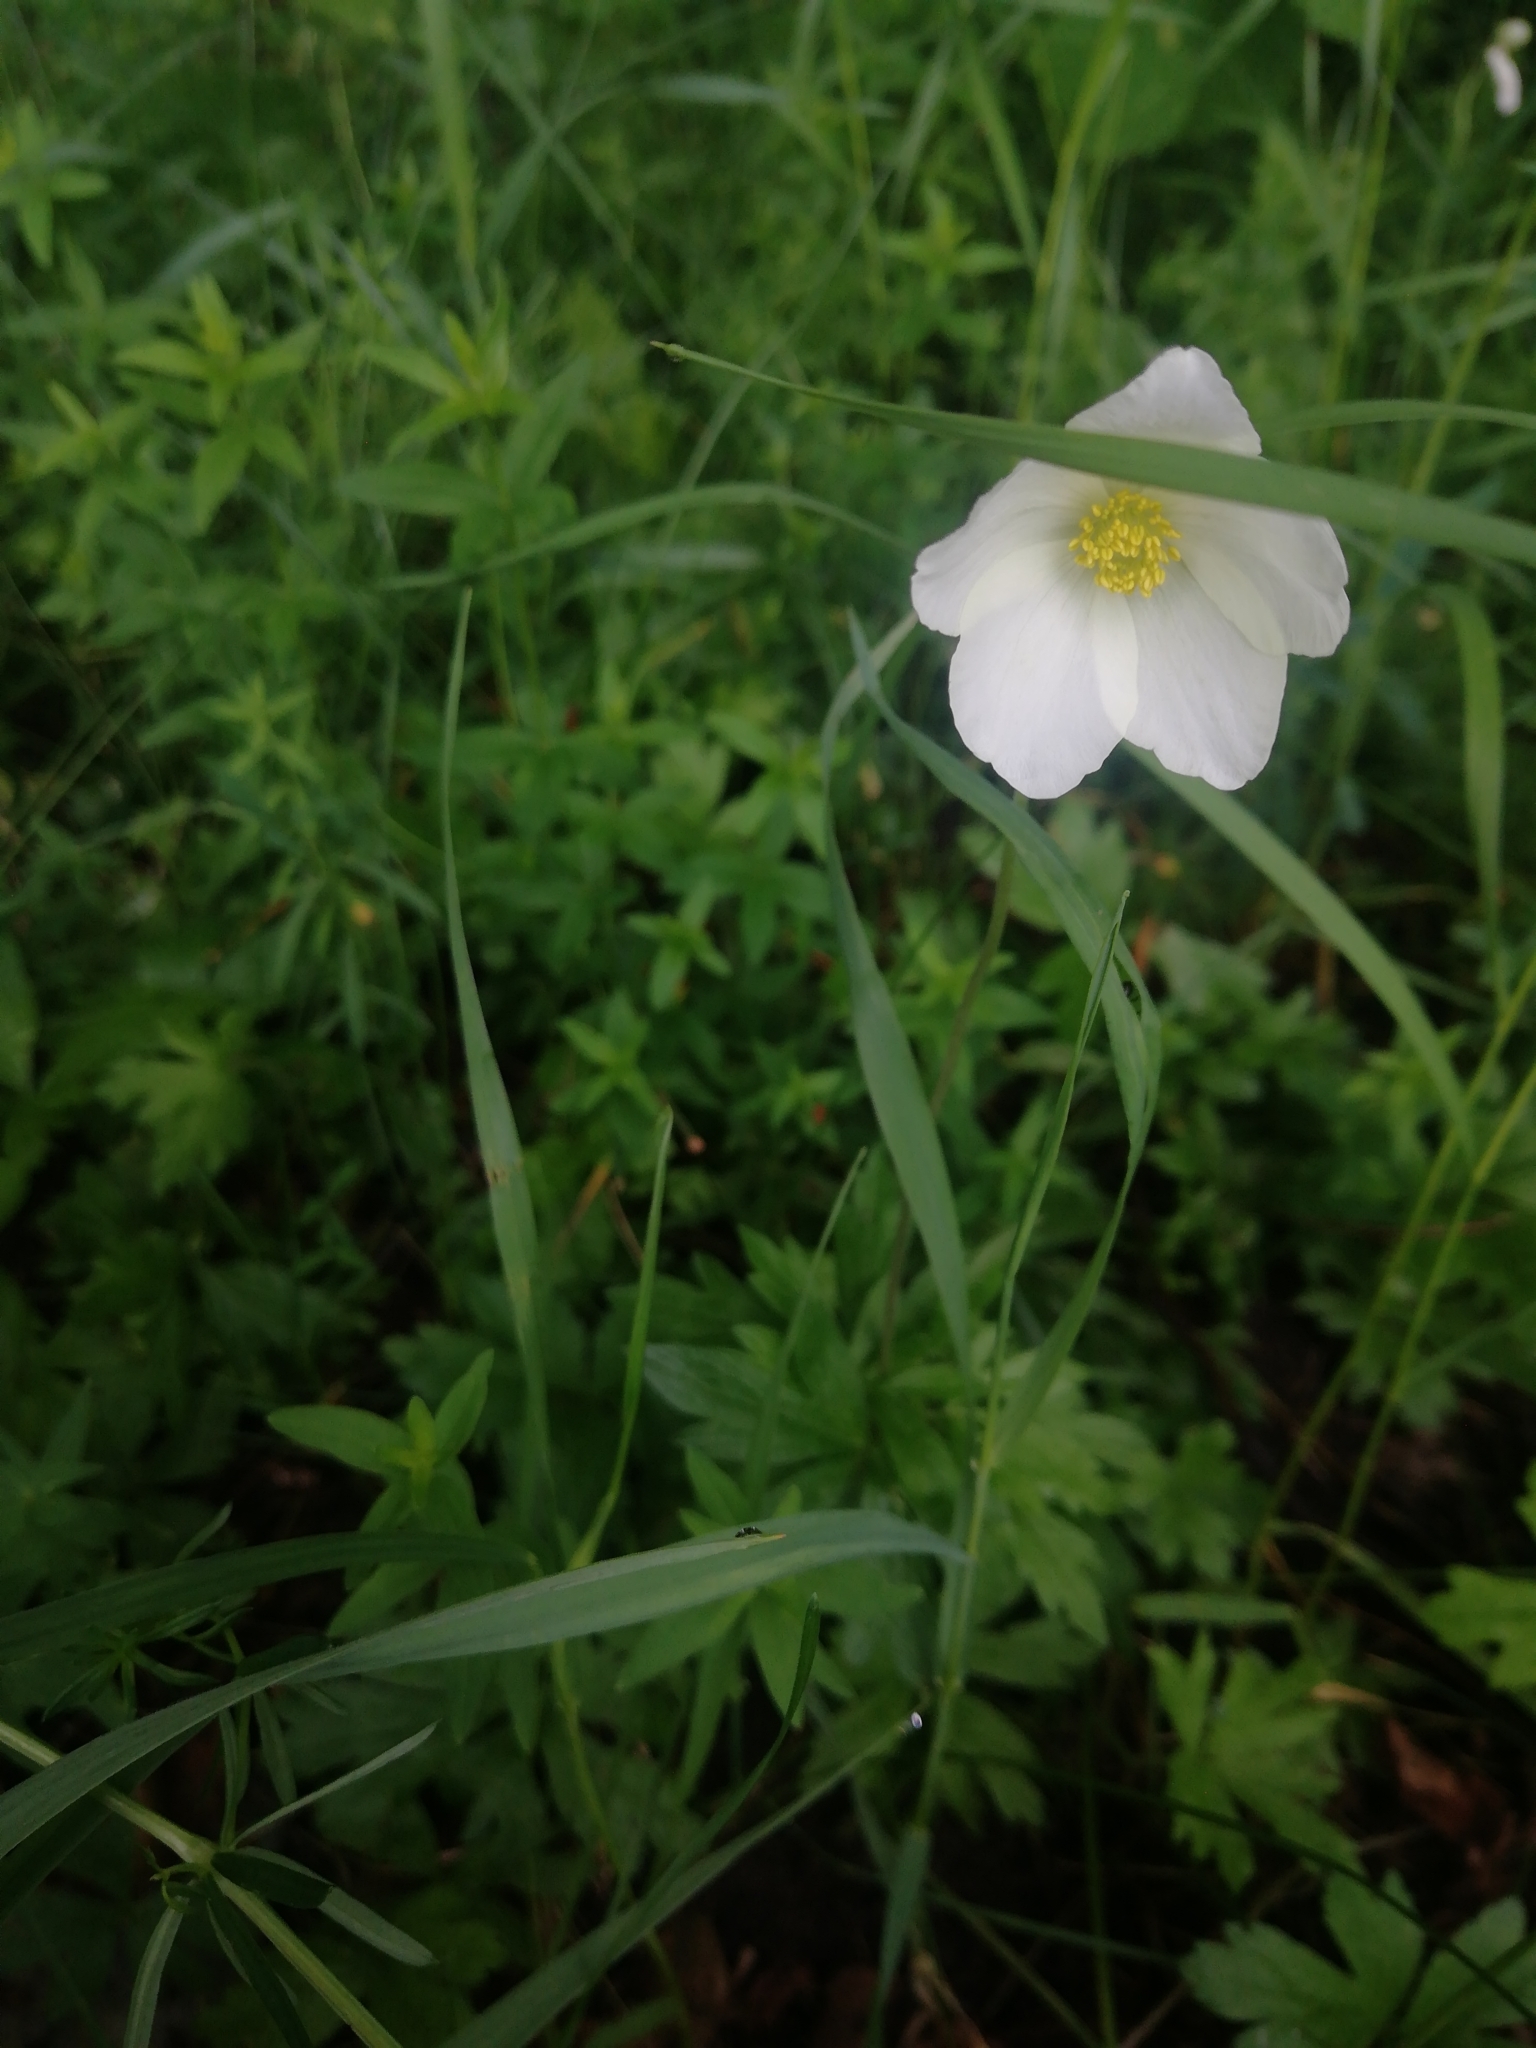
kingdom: Plantae
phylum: Tracheophyta
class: Magnoliopsida
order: Ranunculales
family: Ranunculaceae
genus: Anemone
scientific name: Anemone sylvestris
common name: Snowdrop anemone
